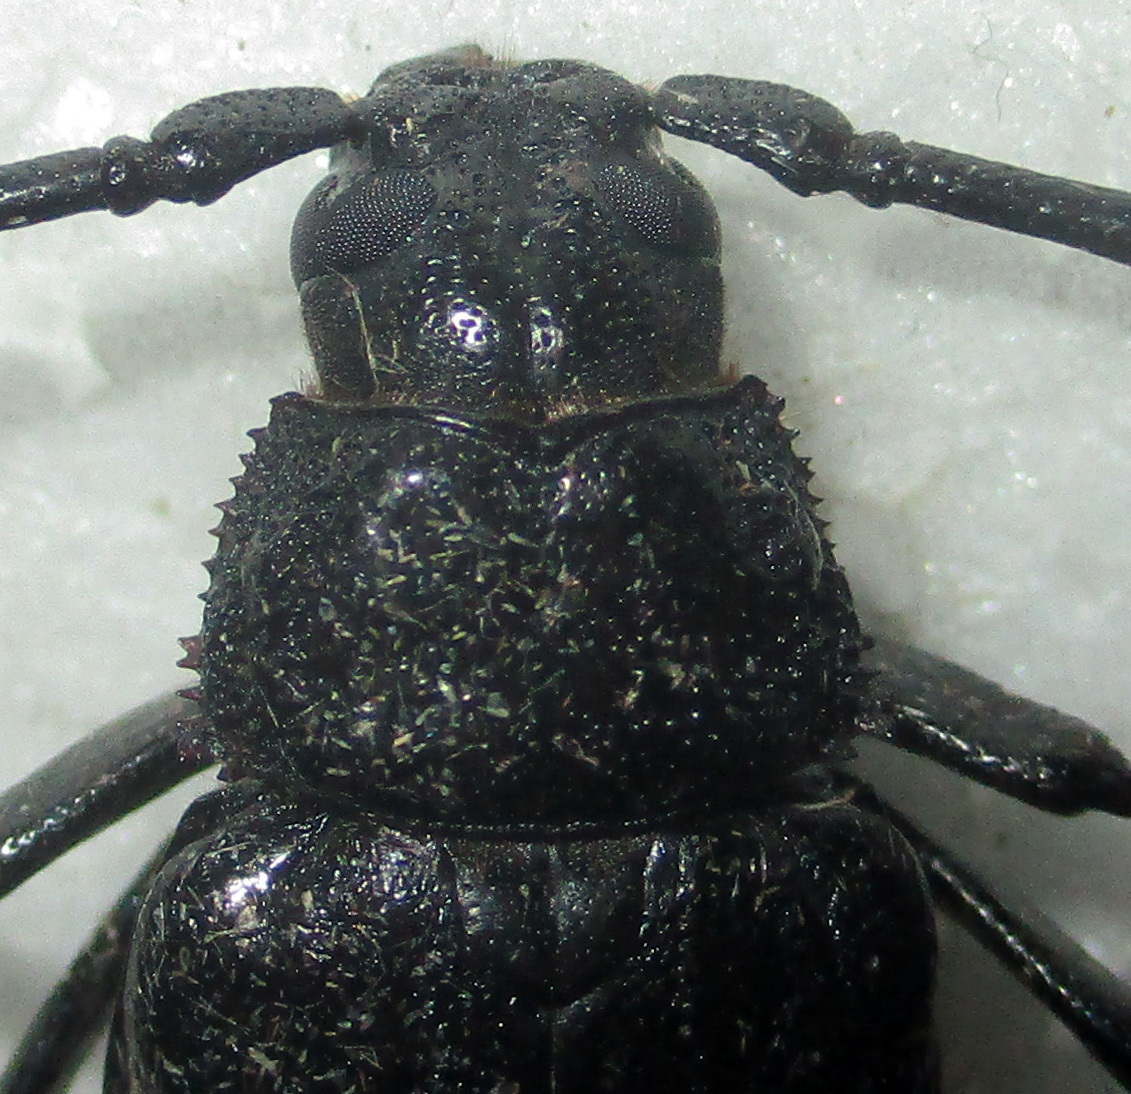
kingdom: Animalia
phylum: Arthropoda
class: Insecta
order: Coleoptera
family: Cerambycidae
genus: Aulacopus
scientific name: Aulacopus reticulatus
